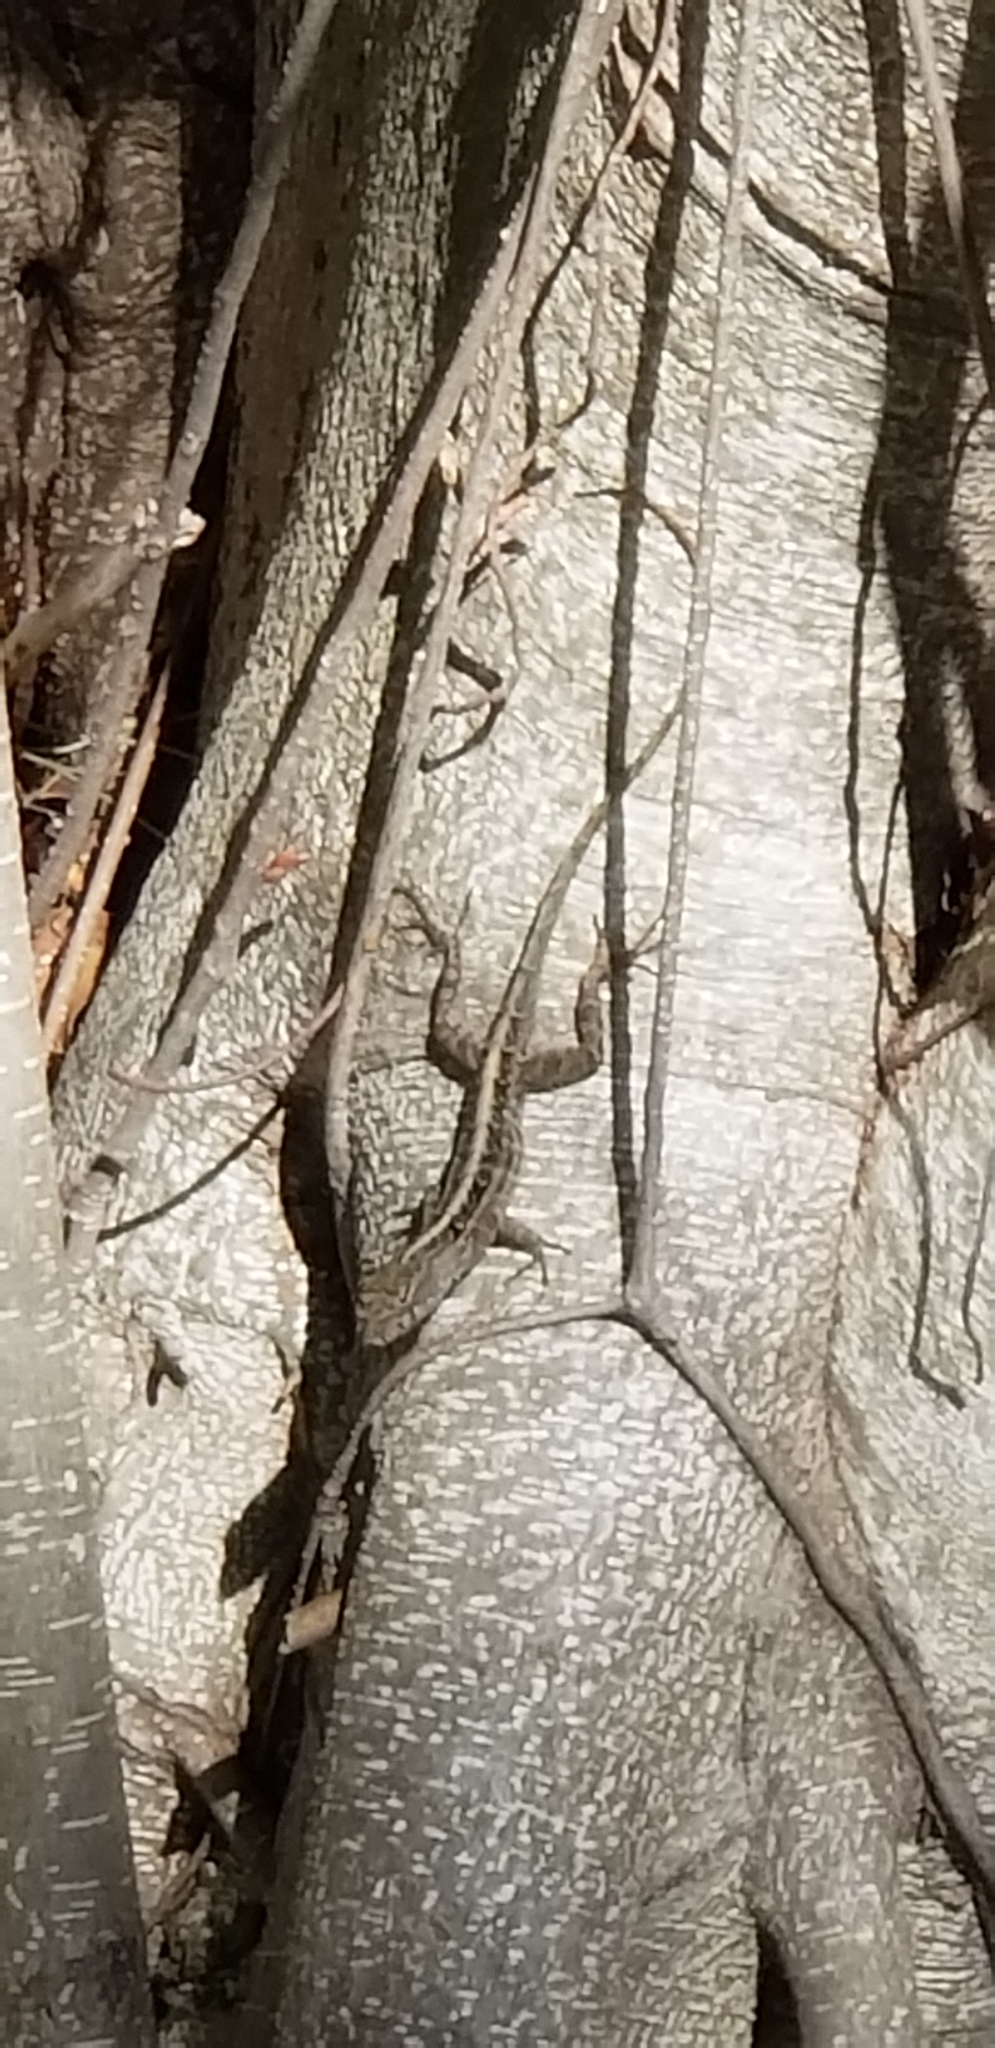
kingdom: Animalia
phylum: Chordata
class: Squamata
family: Dactyloidae
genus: Anolis
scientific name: Anolis sagrei
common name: Brown anole
